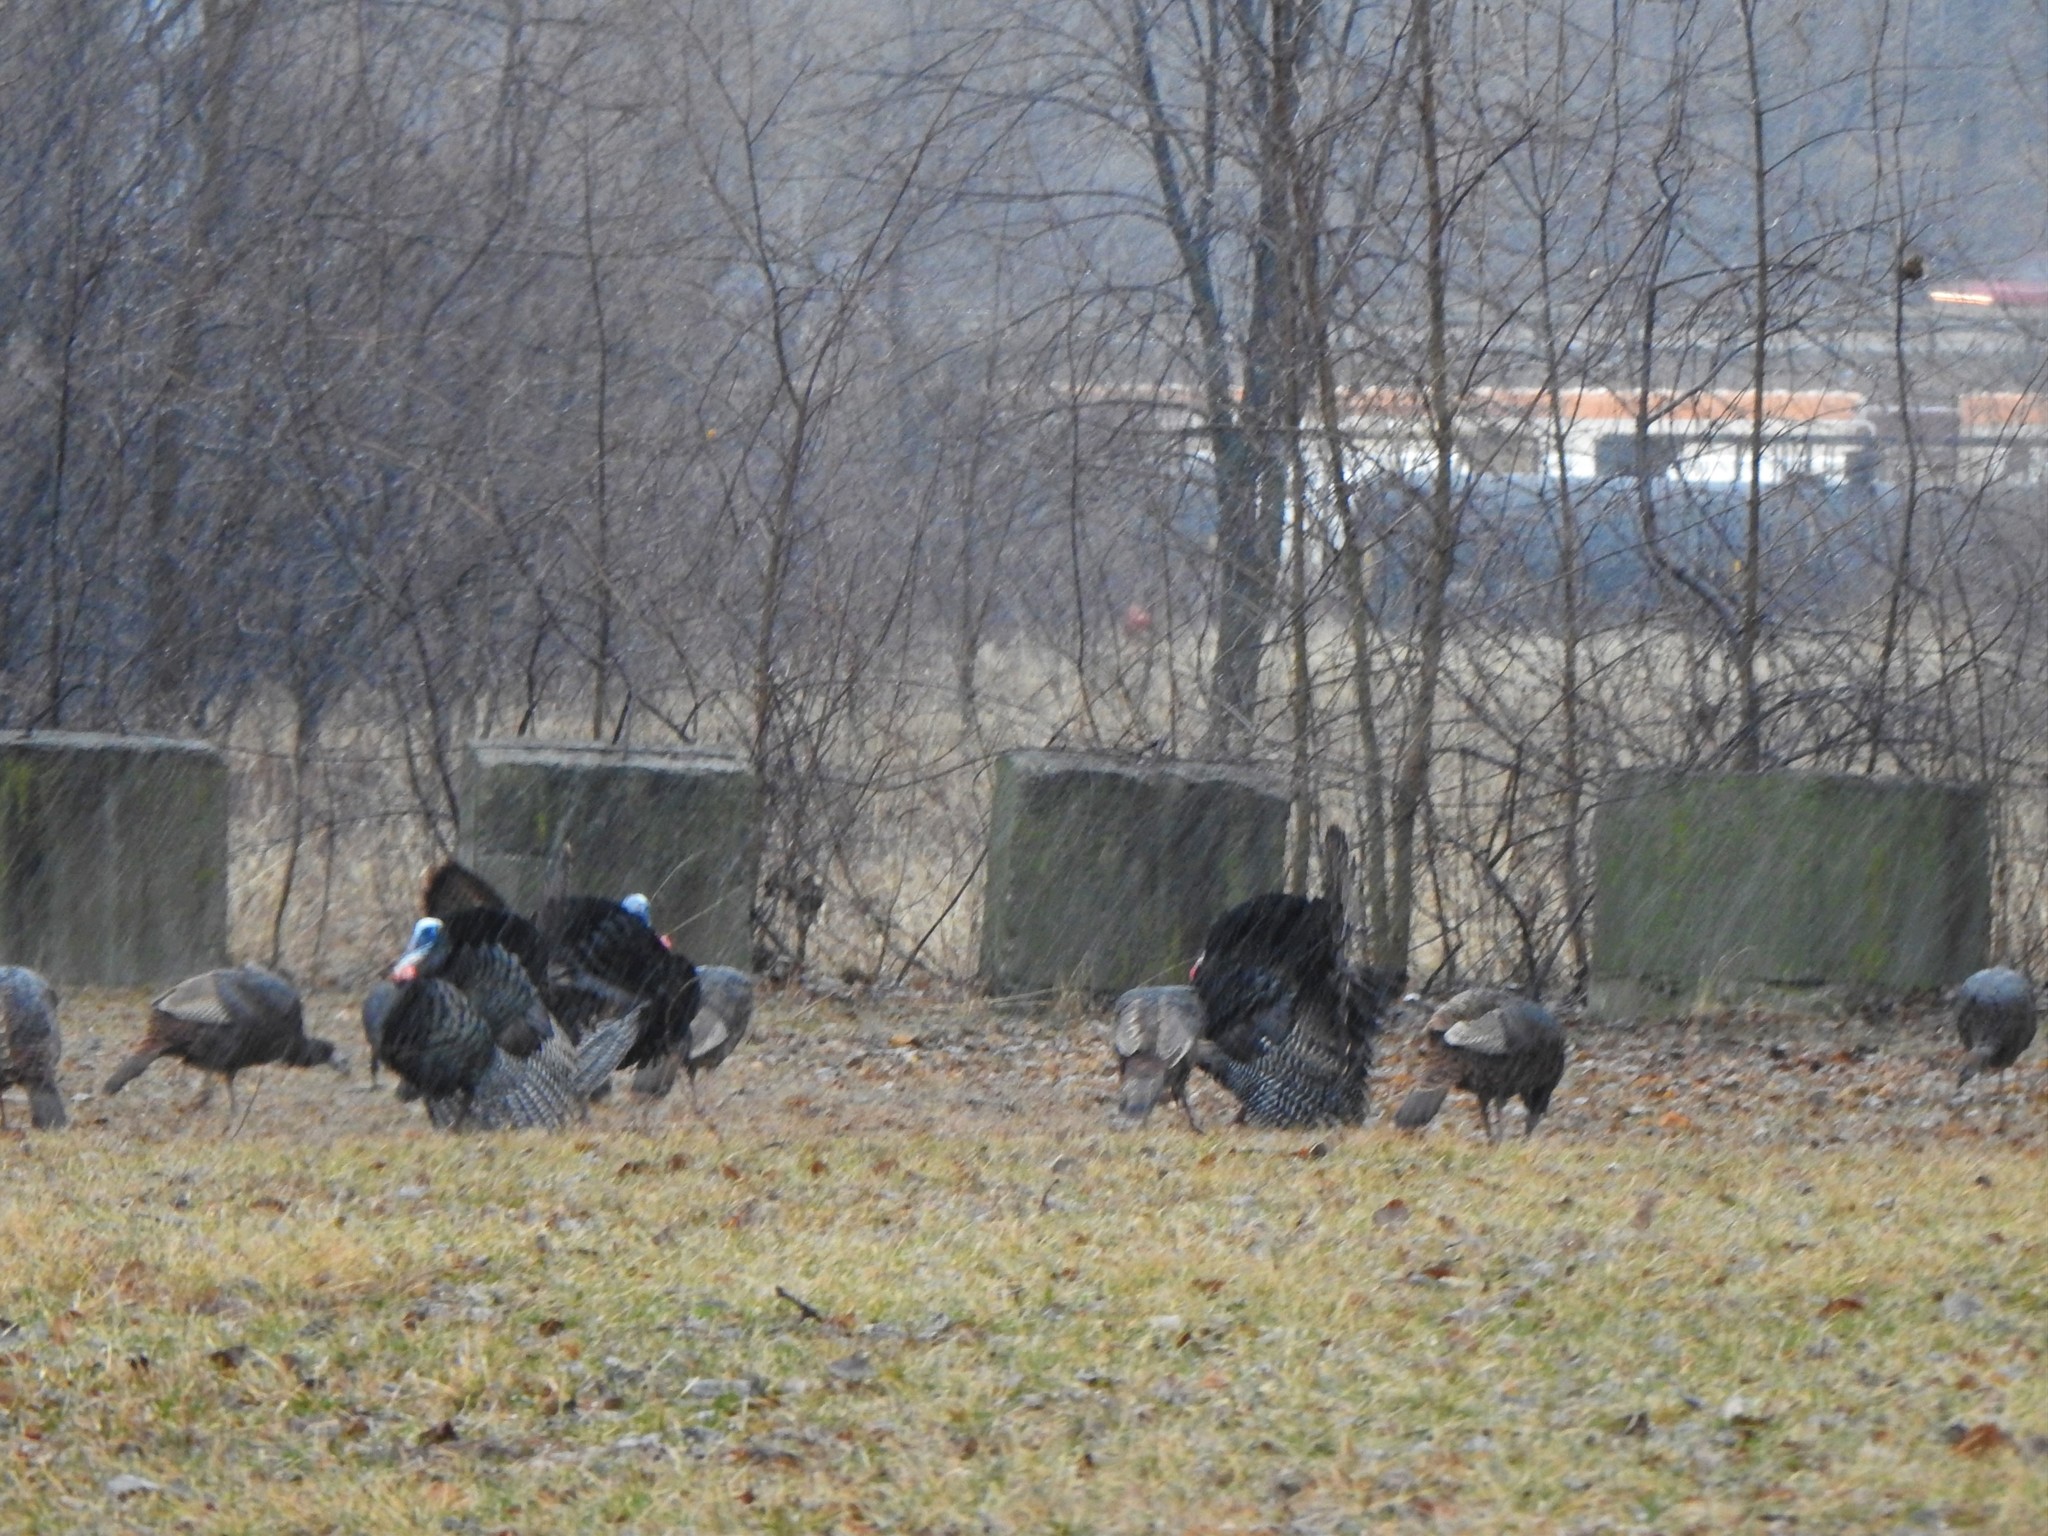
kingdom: Animalia
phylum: Chordata
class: Aves
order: Galliformes
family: Phasianidae
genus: Meleagris
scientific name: Meleagris gallopavo
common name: Wild turkey
